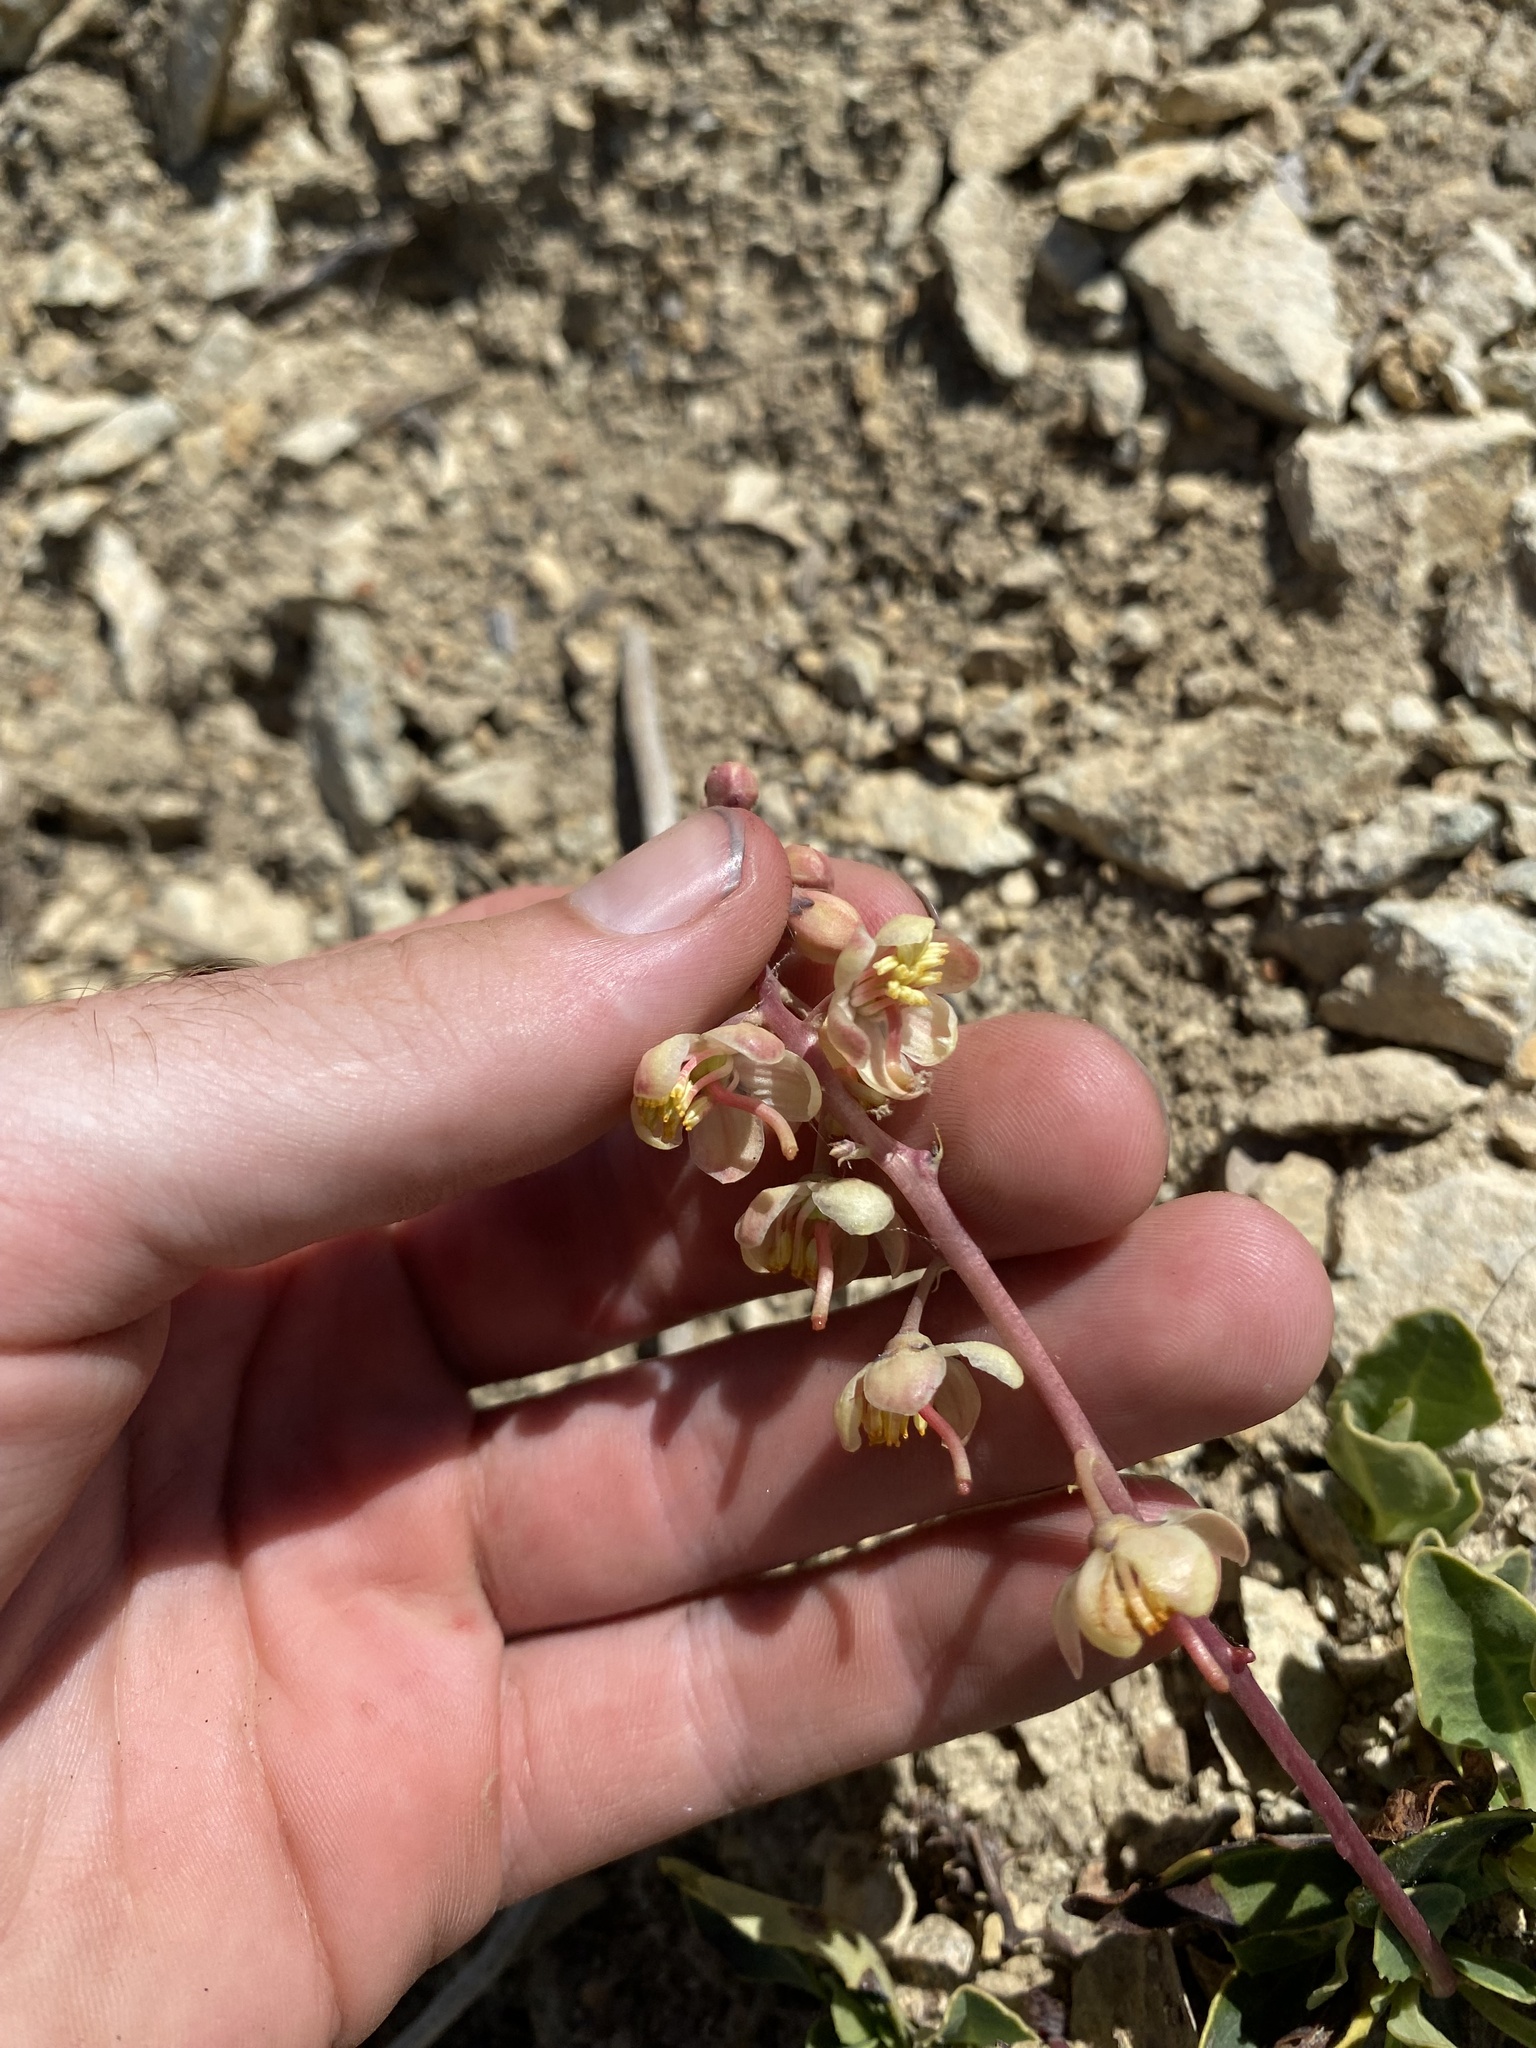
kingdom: Plantae
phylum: Tracheophyta
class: Magnoliopsida
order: Ericales
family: Ericaceae
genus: Pyrola
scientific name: Pyrola dentata
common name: Tooth-leaved wintergreen
